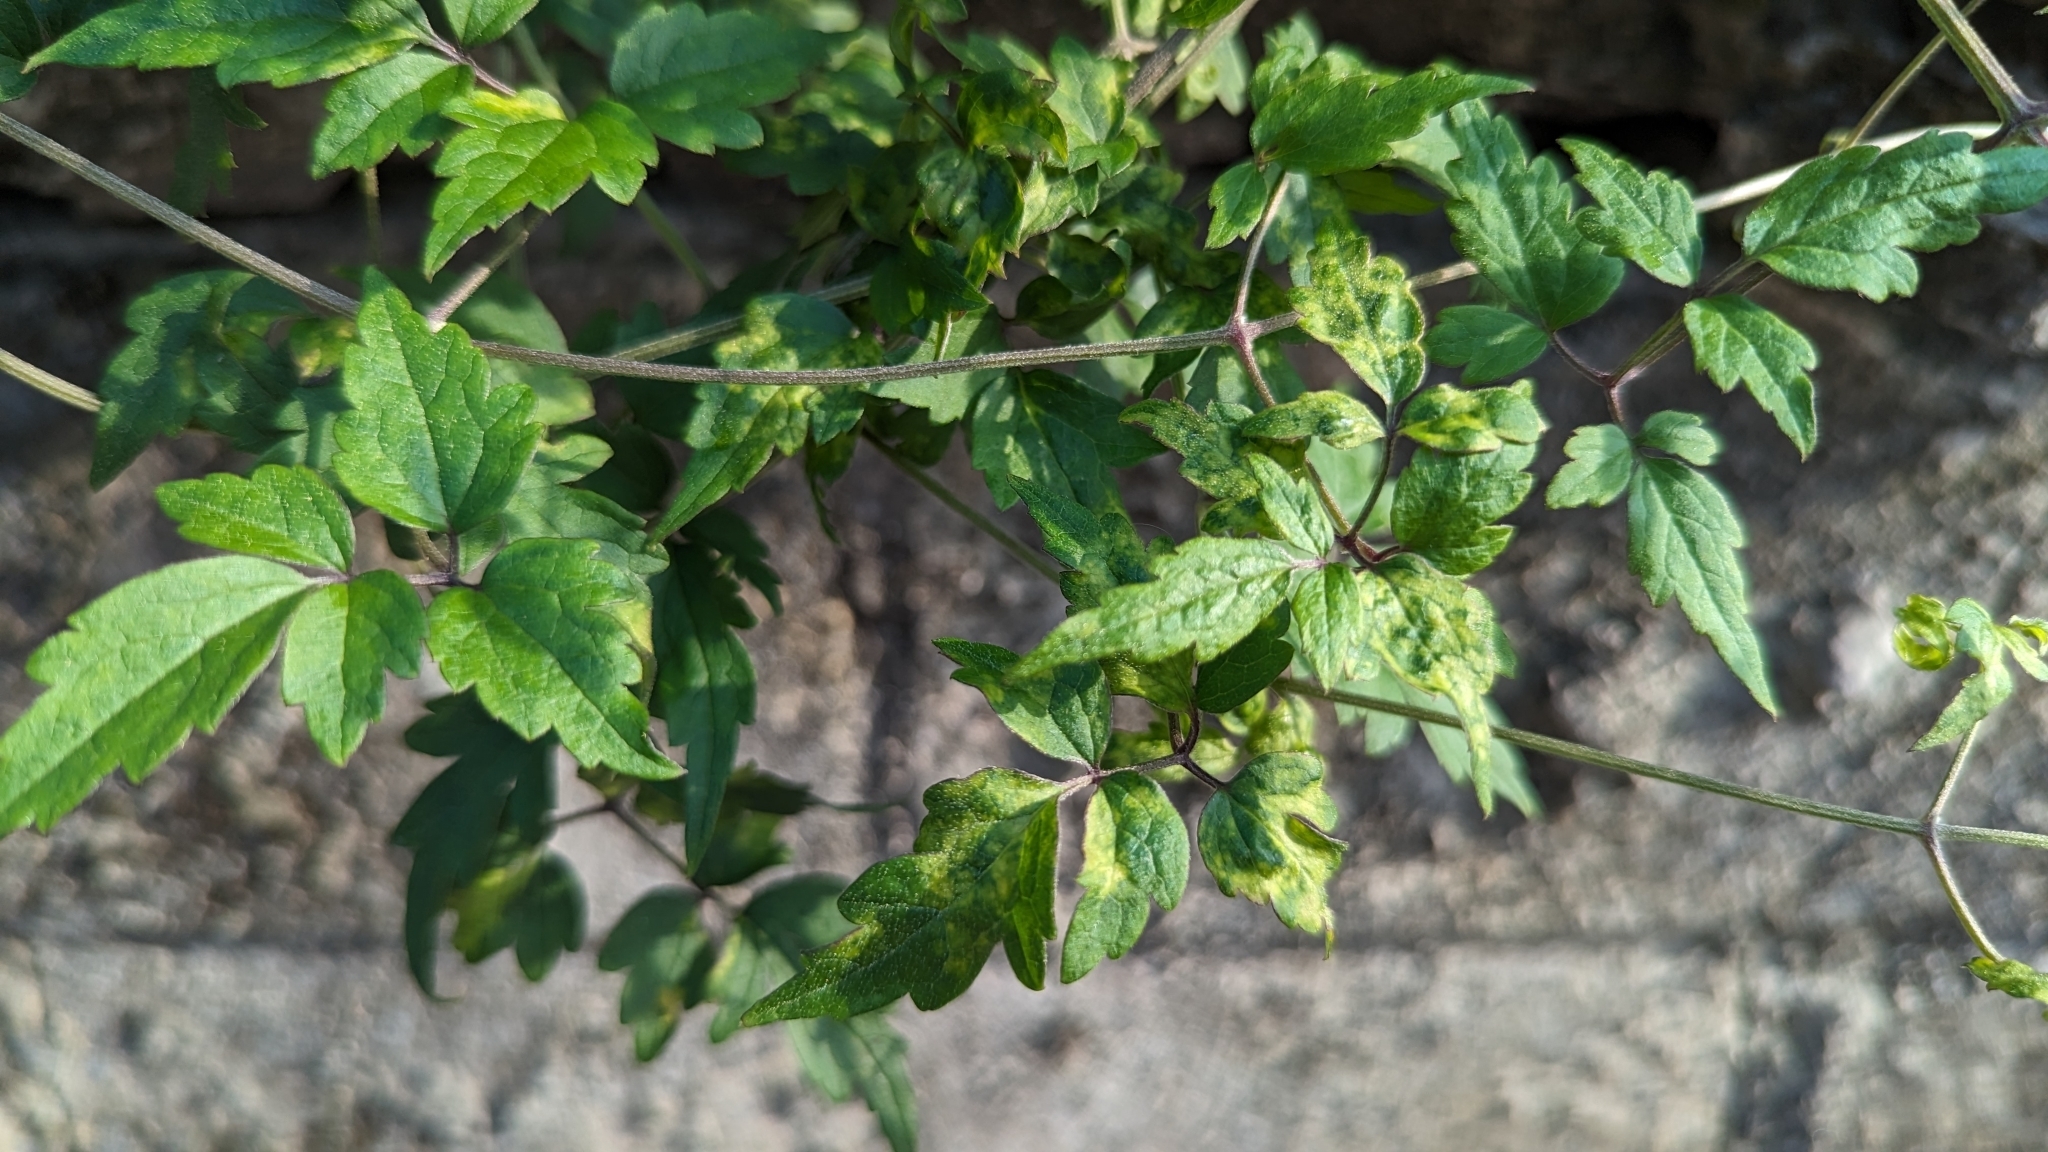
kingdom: Plantae
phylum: Tracheophyta
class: Magnoliopsida
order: Ranunculales
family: Ranunculaceae
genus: Clematis
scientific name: Clematis grata
